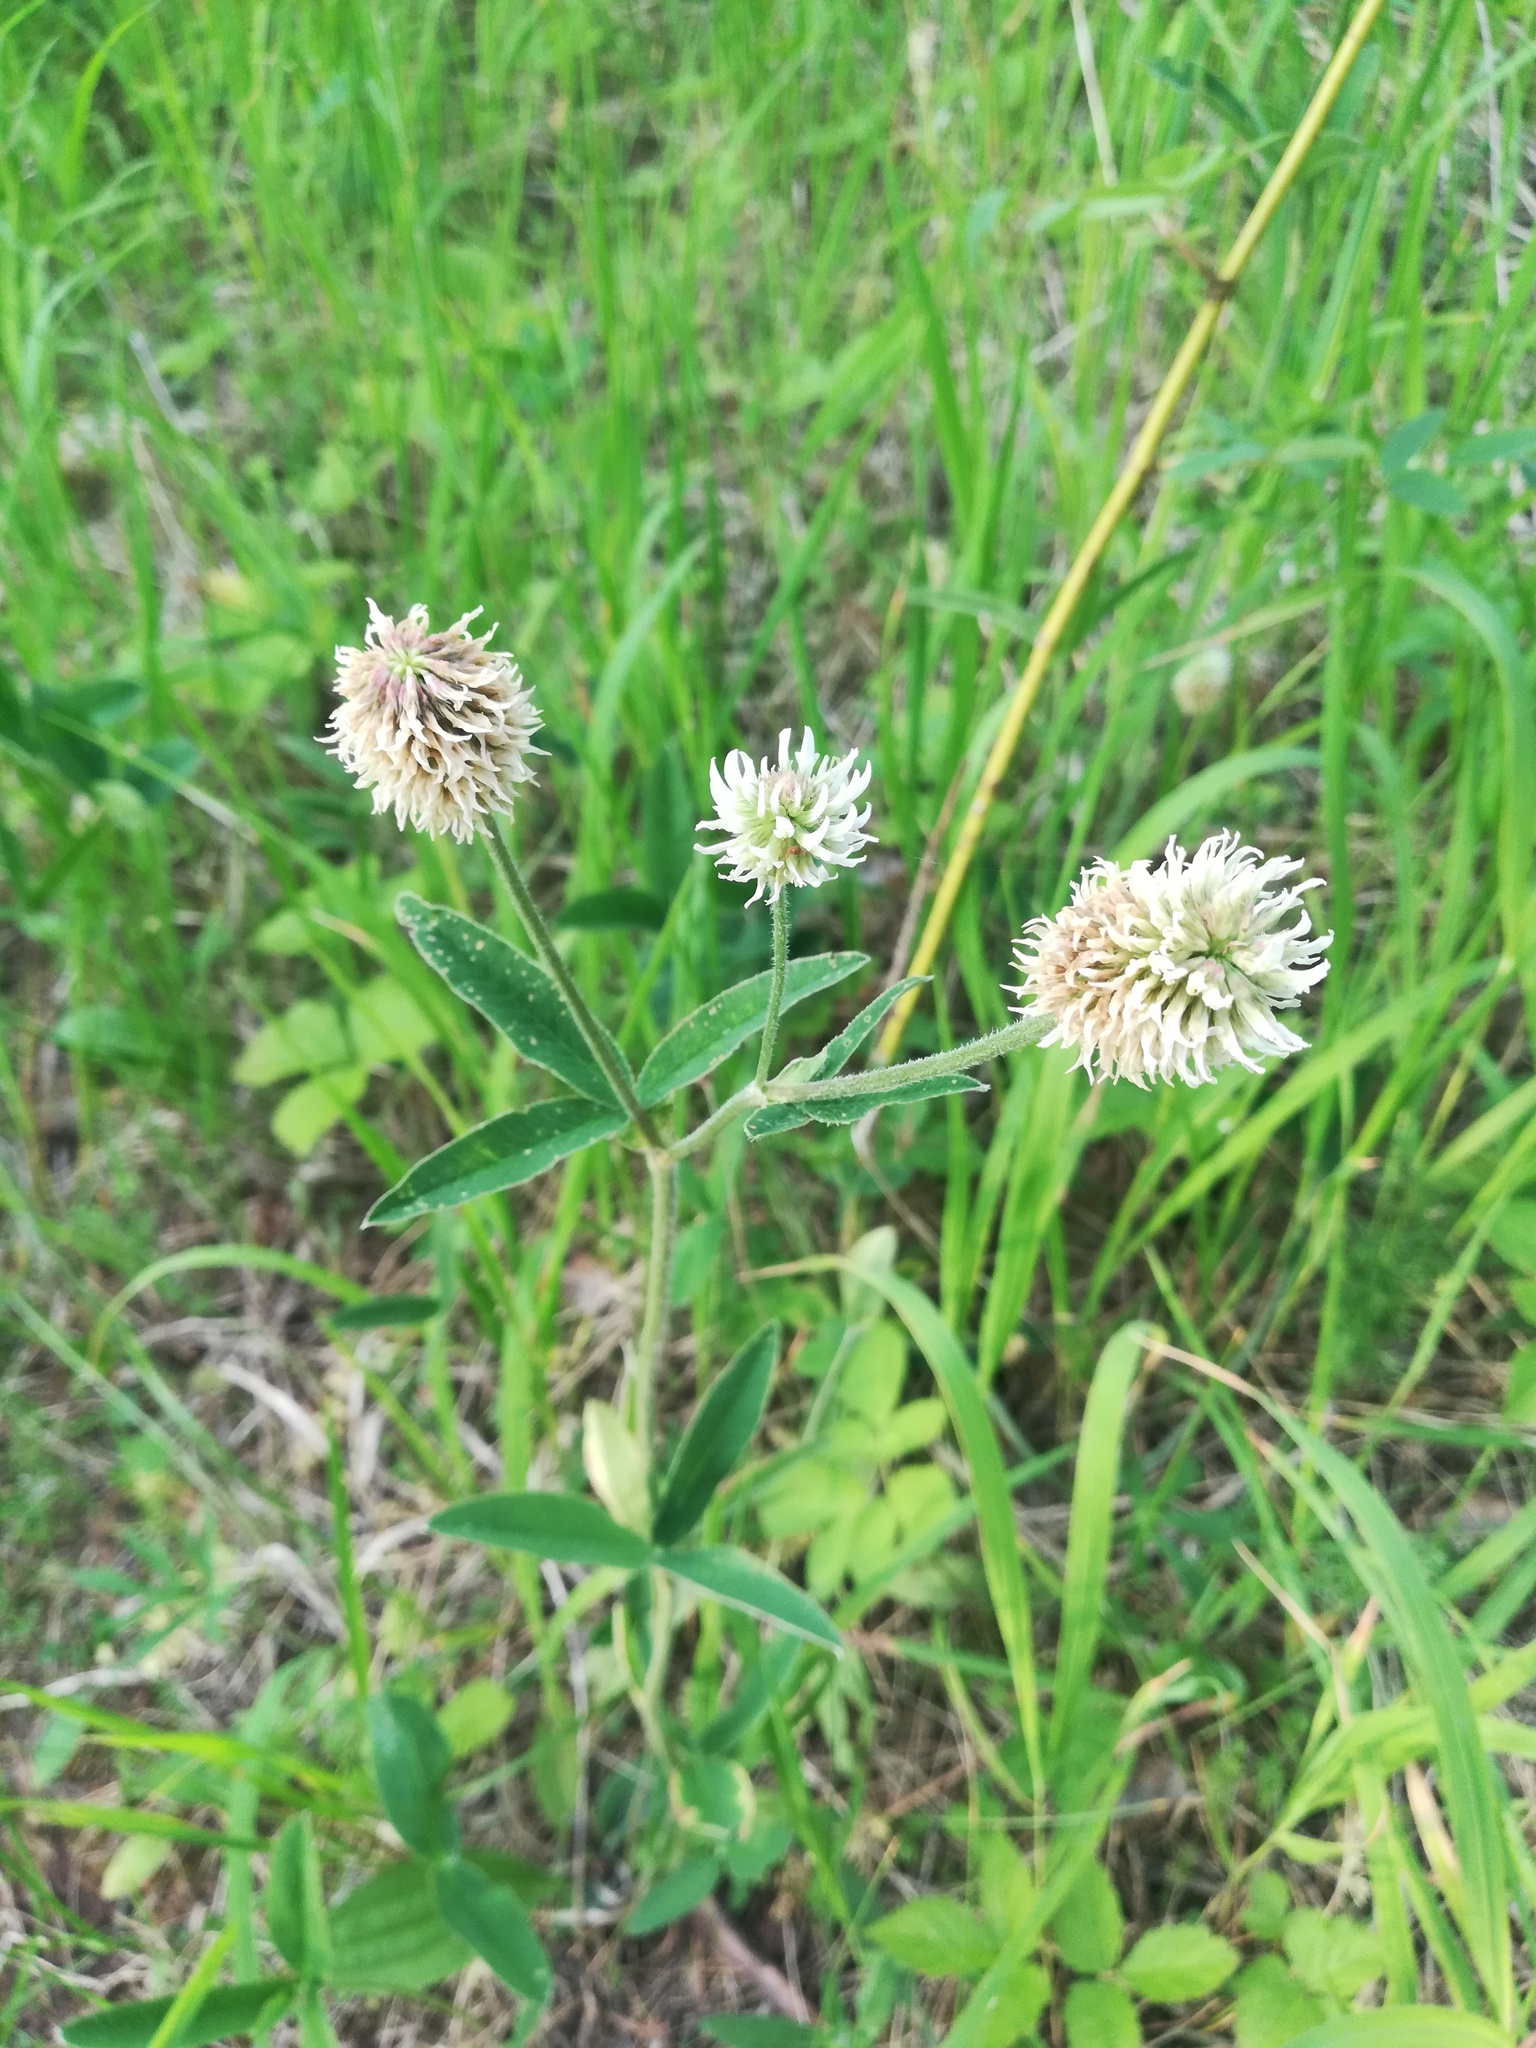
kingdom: Plantae
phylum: Tracheophyta
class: Magnoliopsida
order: Fabales
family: Fabaceae
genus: Trifolium
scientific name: Trifolium montanum
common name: Mountain clover
